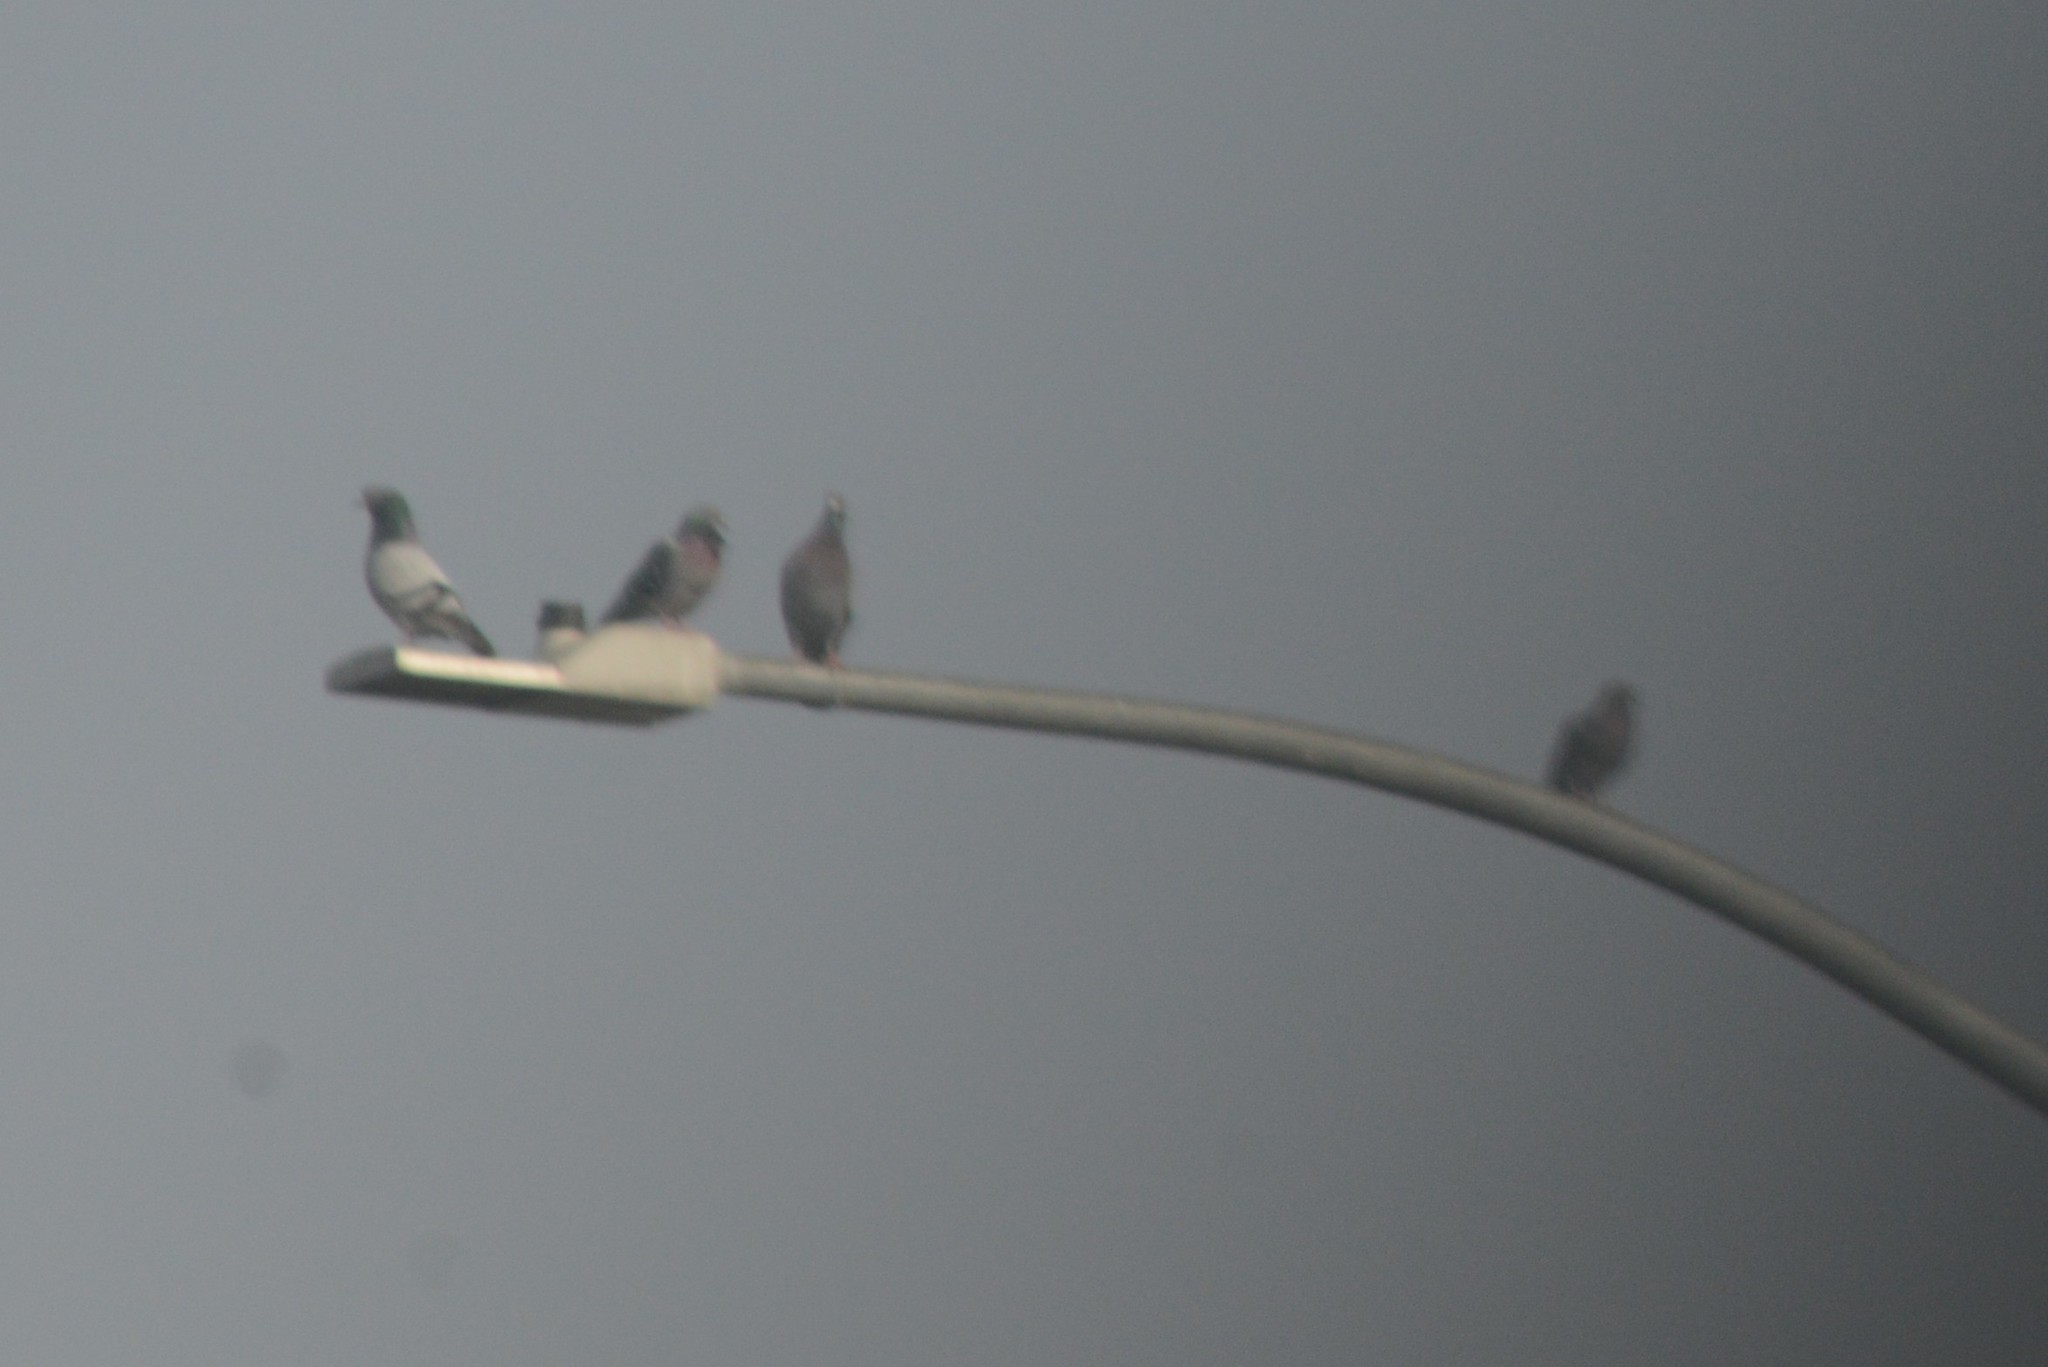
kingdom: Animalia
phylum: Chordata
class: Aves
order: Columbiformes
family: Columbidae
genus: Columba
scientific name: Columba livia
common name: Rock pigeon
